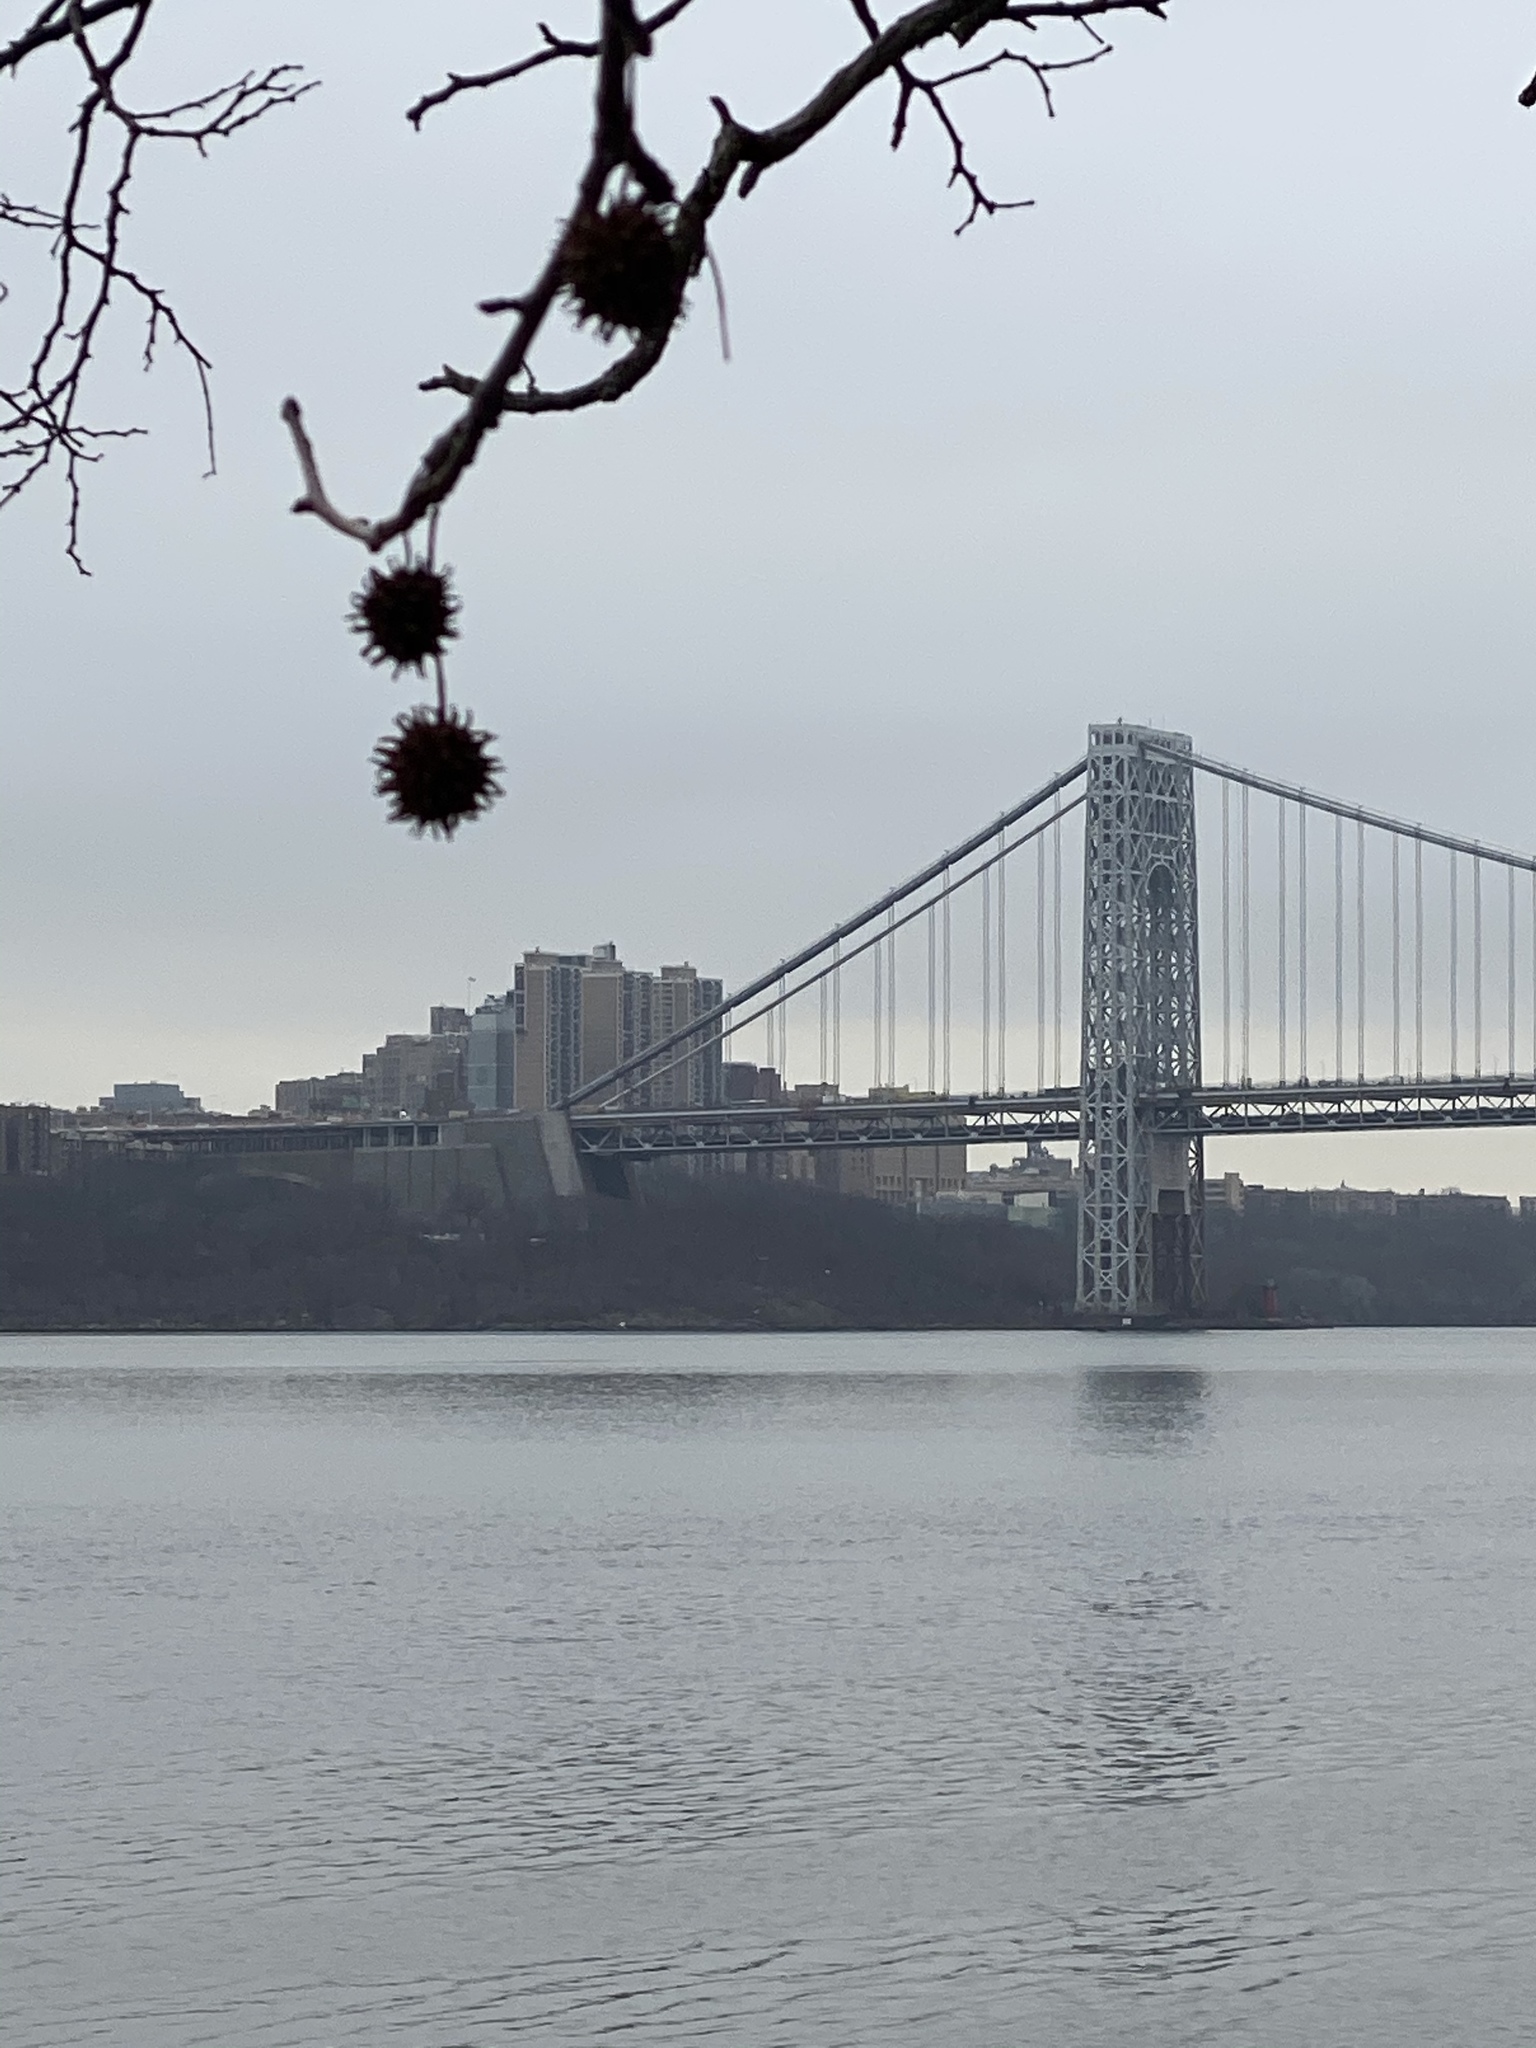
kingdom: Plantae
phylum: Tracheophyta
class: Magnoliopsida
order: Saxifragales
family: Altingiaceae
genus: Liquidambar
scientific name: Liquidambar styraciflua
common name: Sweet gum
